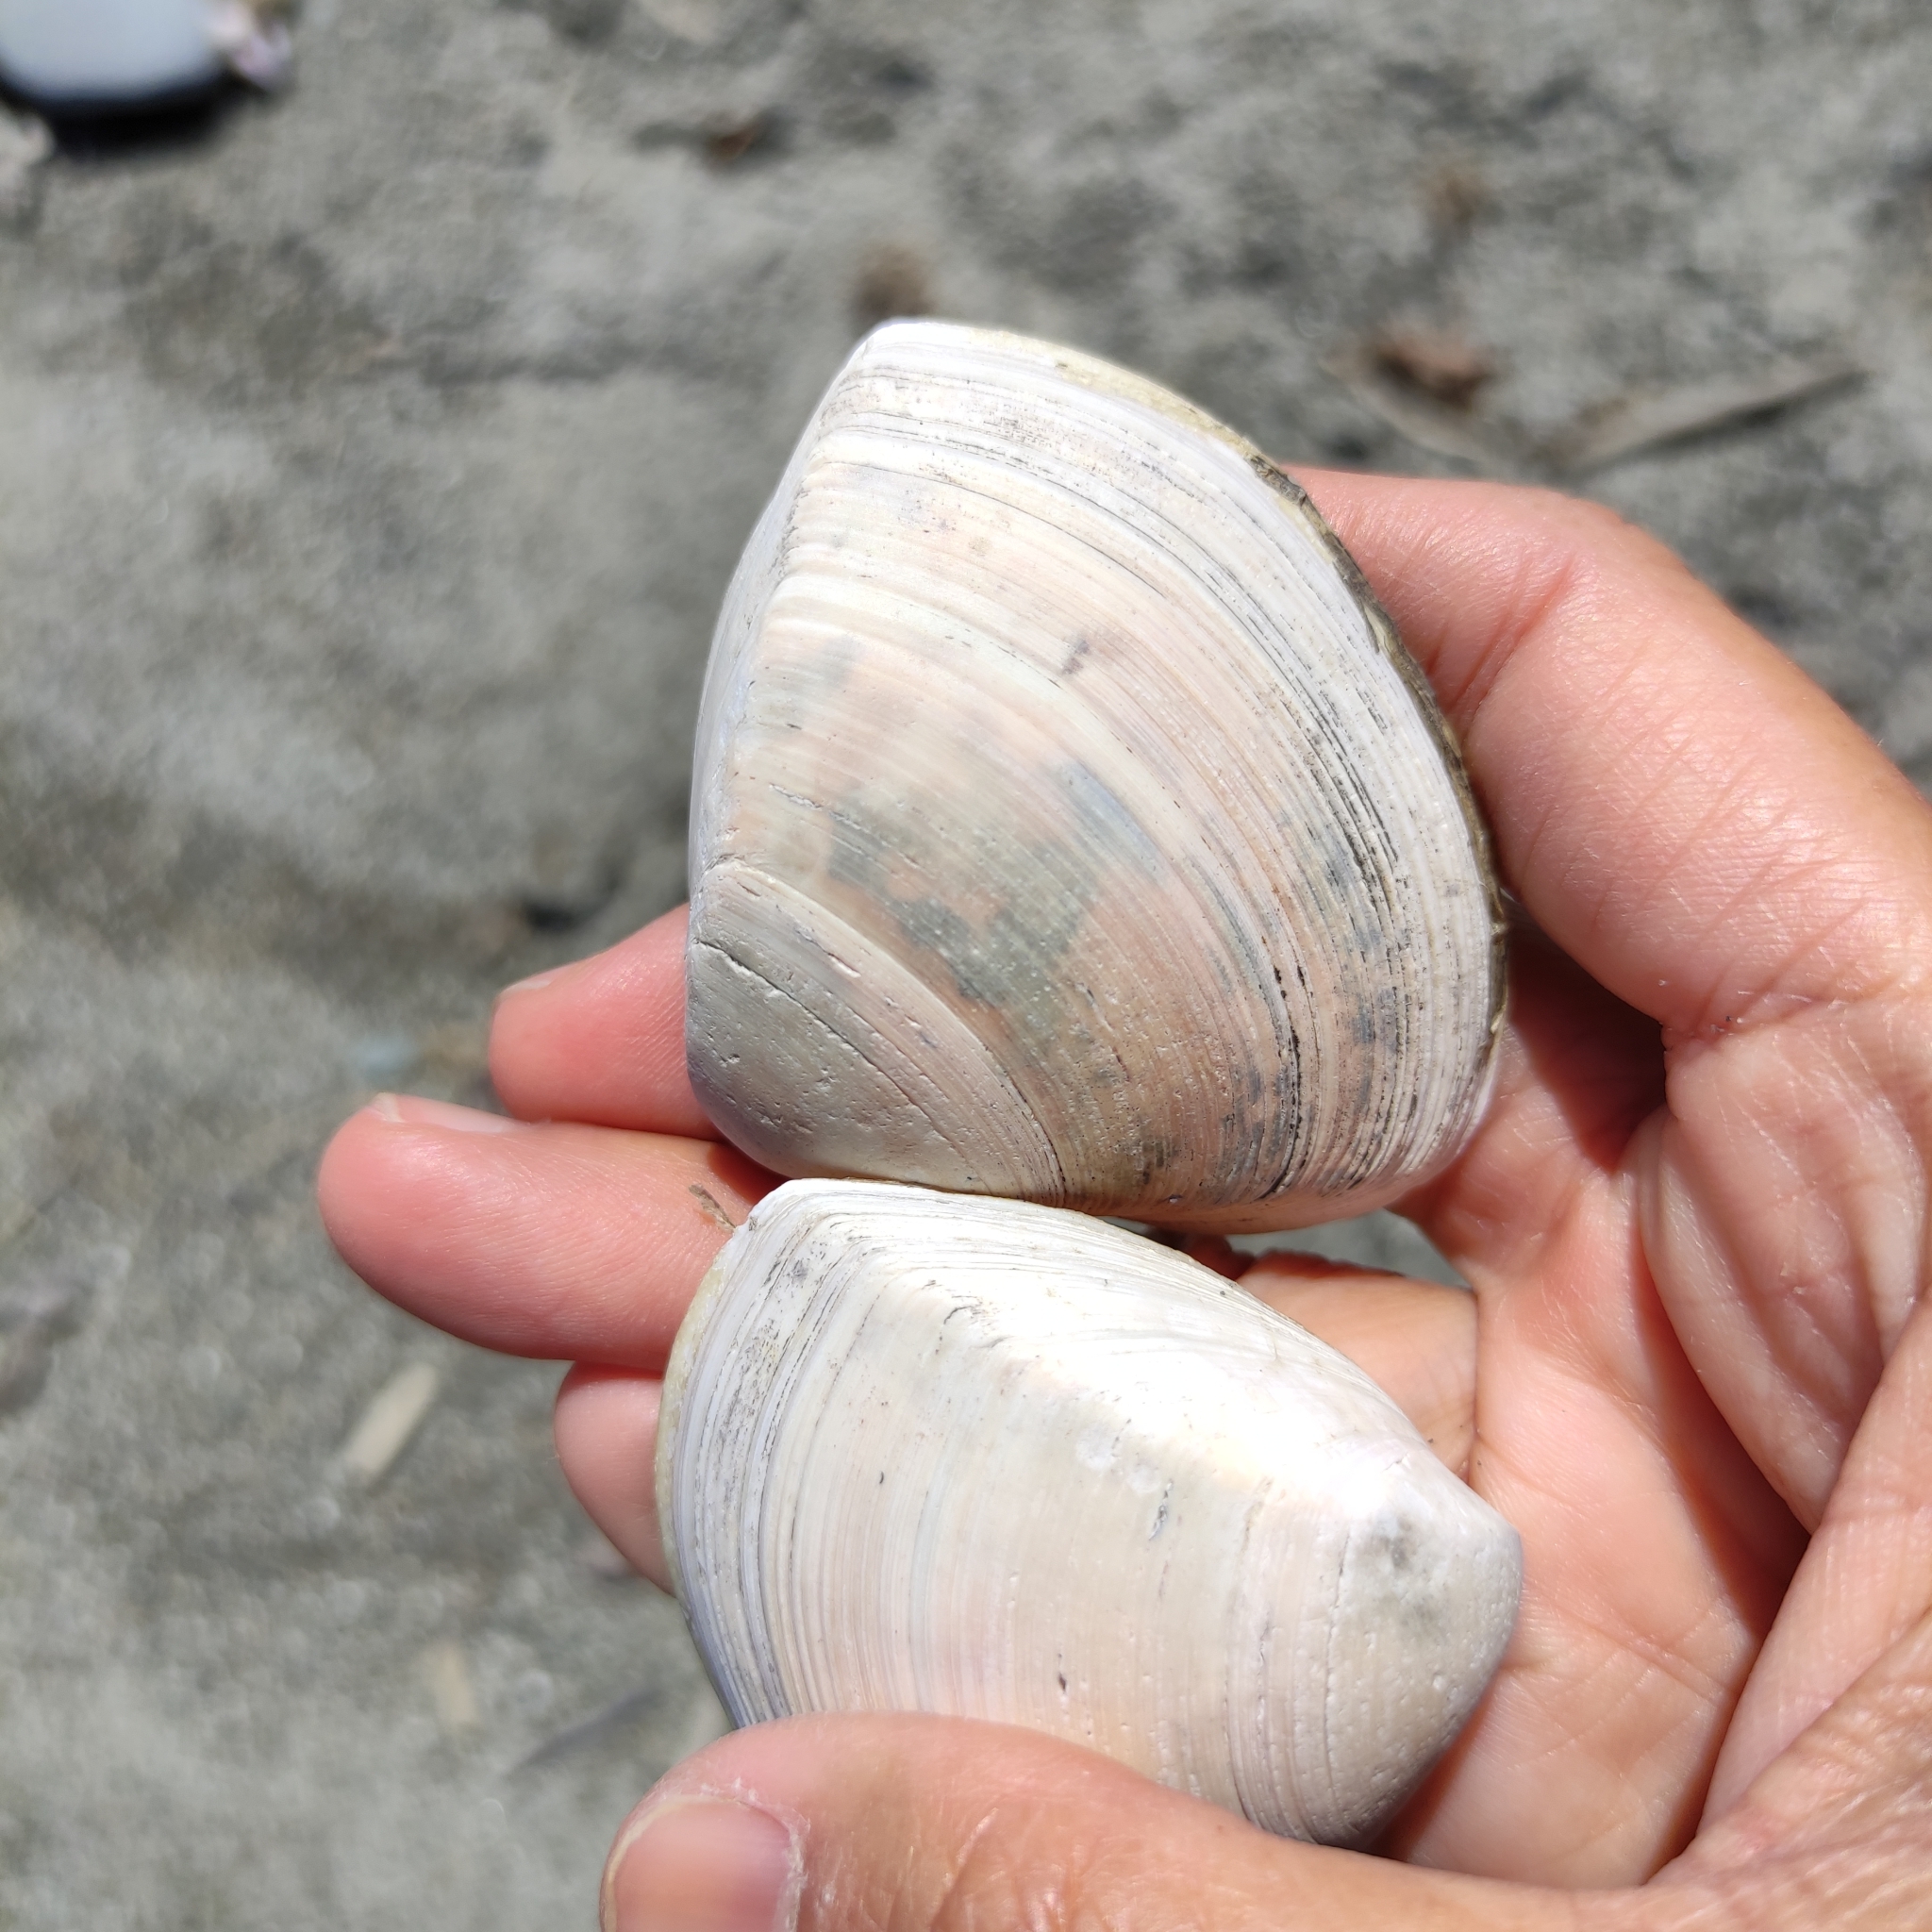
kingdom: Animalia
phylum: Mollusca
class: Bivalvia
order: Venerida
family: Mactridae
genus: Crassula
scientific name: Crassula aequilatera
